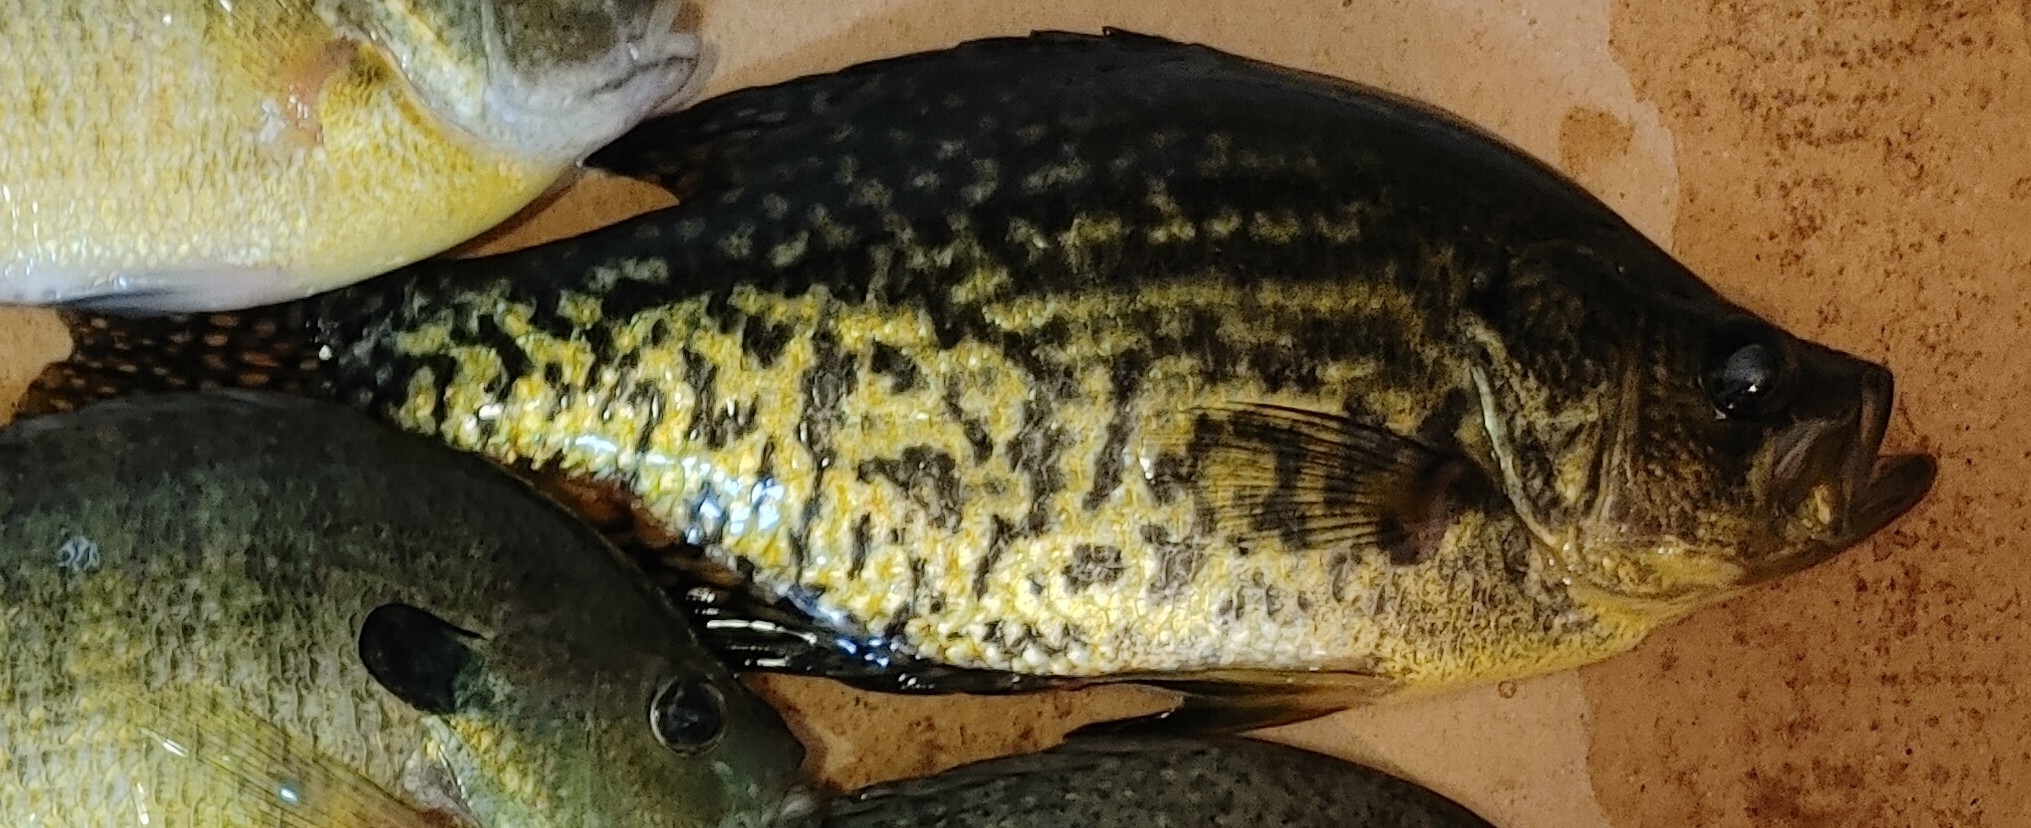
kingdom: Animalia
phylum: Chordata
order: Perciformes
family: Centrarchidae
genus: Pomoxis
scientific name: Pomoxis nigromaculatus
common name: Black crappie
